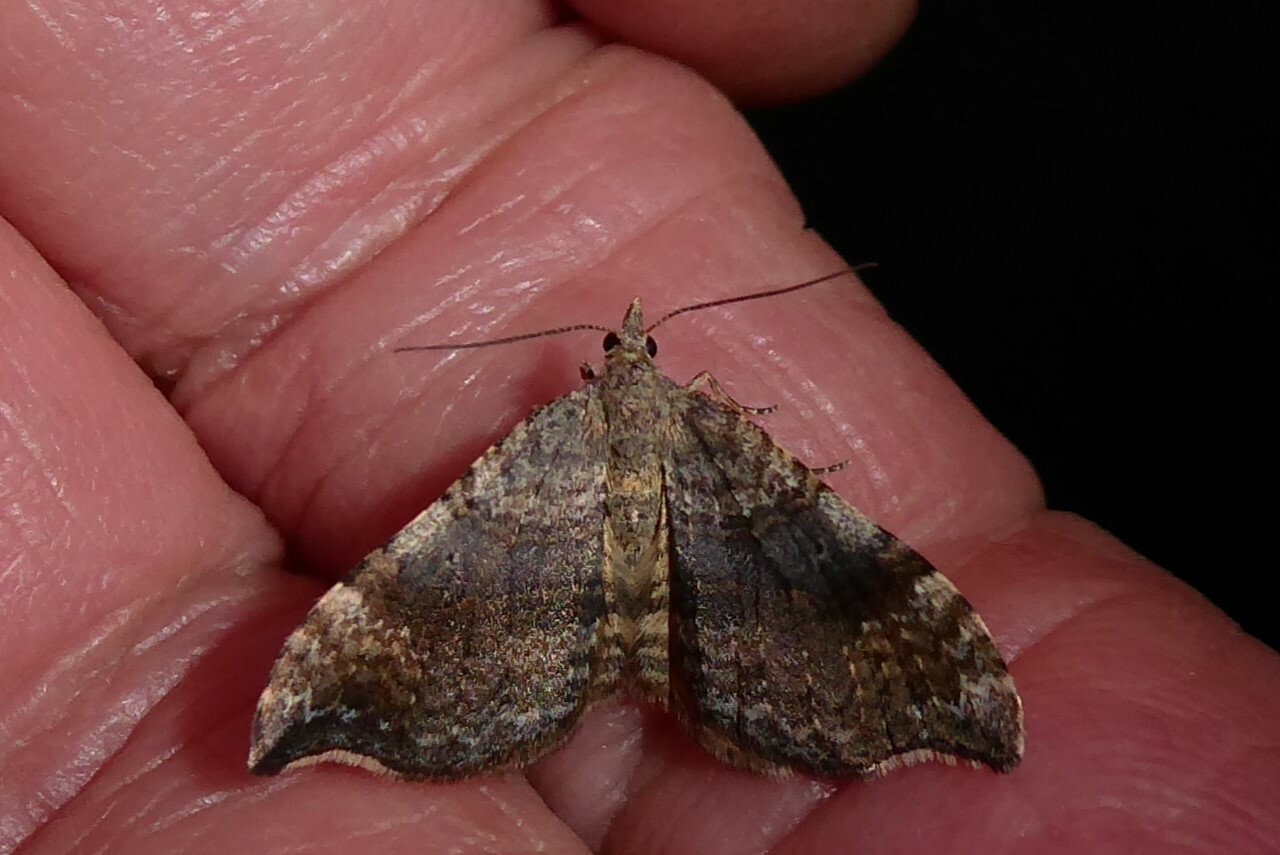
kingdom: Animalia
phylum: Arthropoda
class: Insecta
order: Lepidoptera
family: Geometridae
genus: Homodotis
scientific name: Homodotis megaspilata
